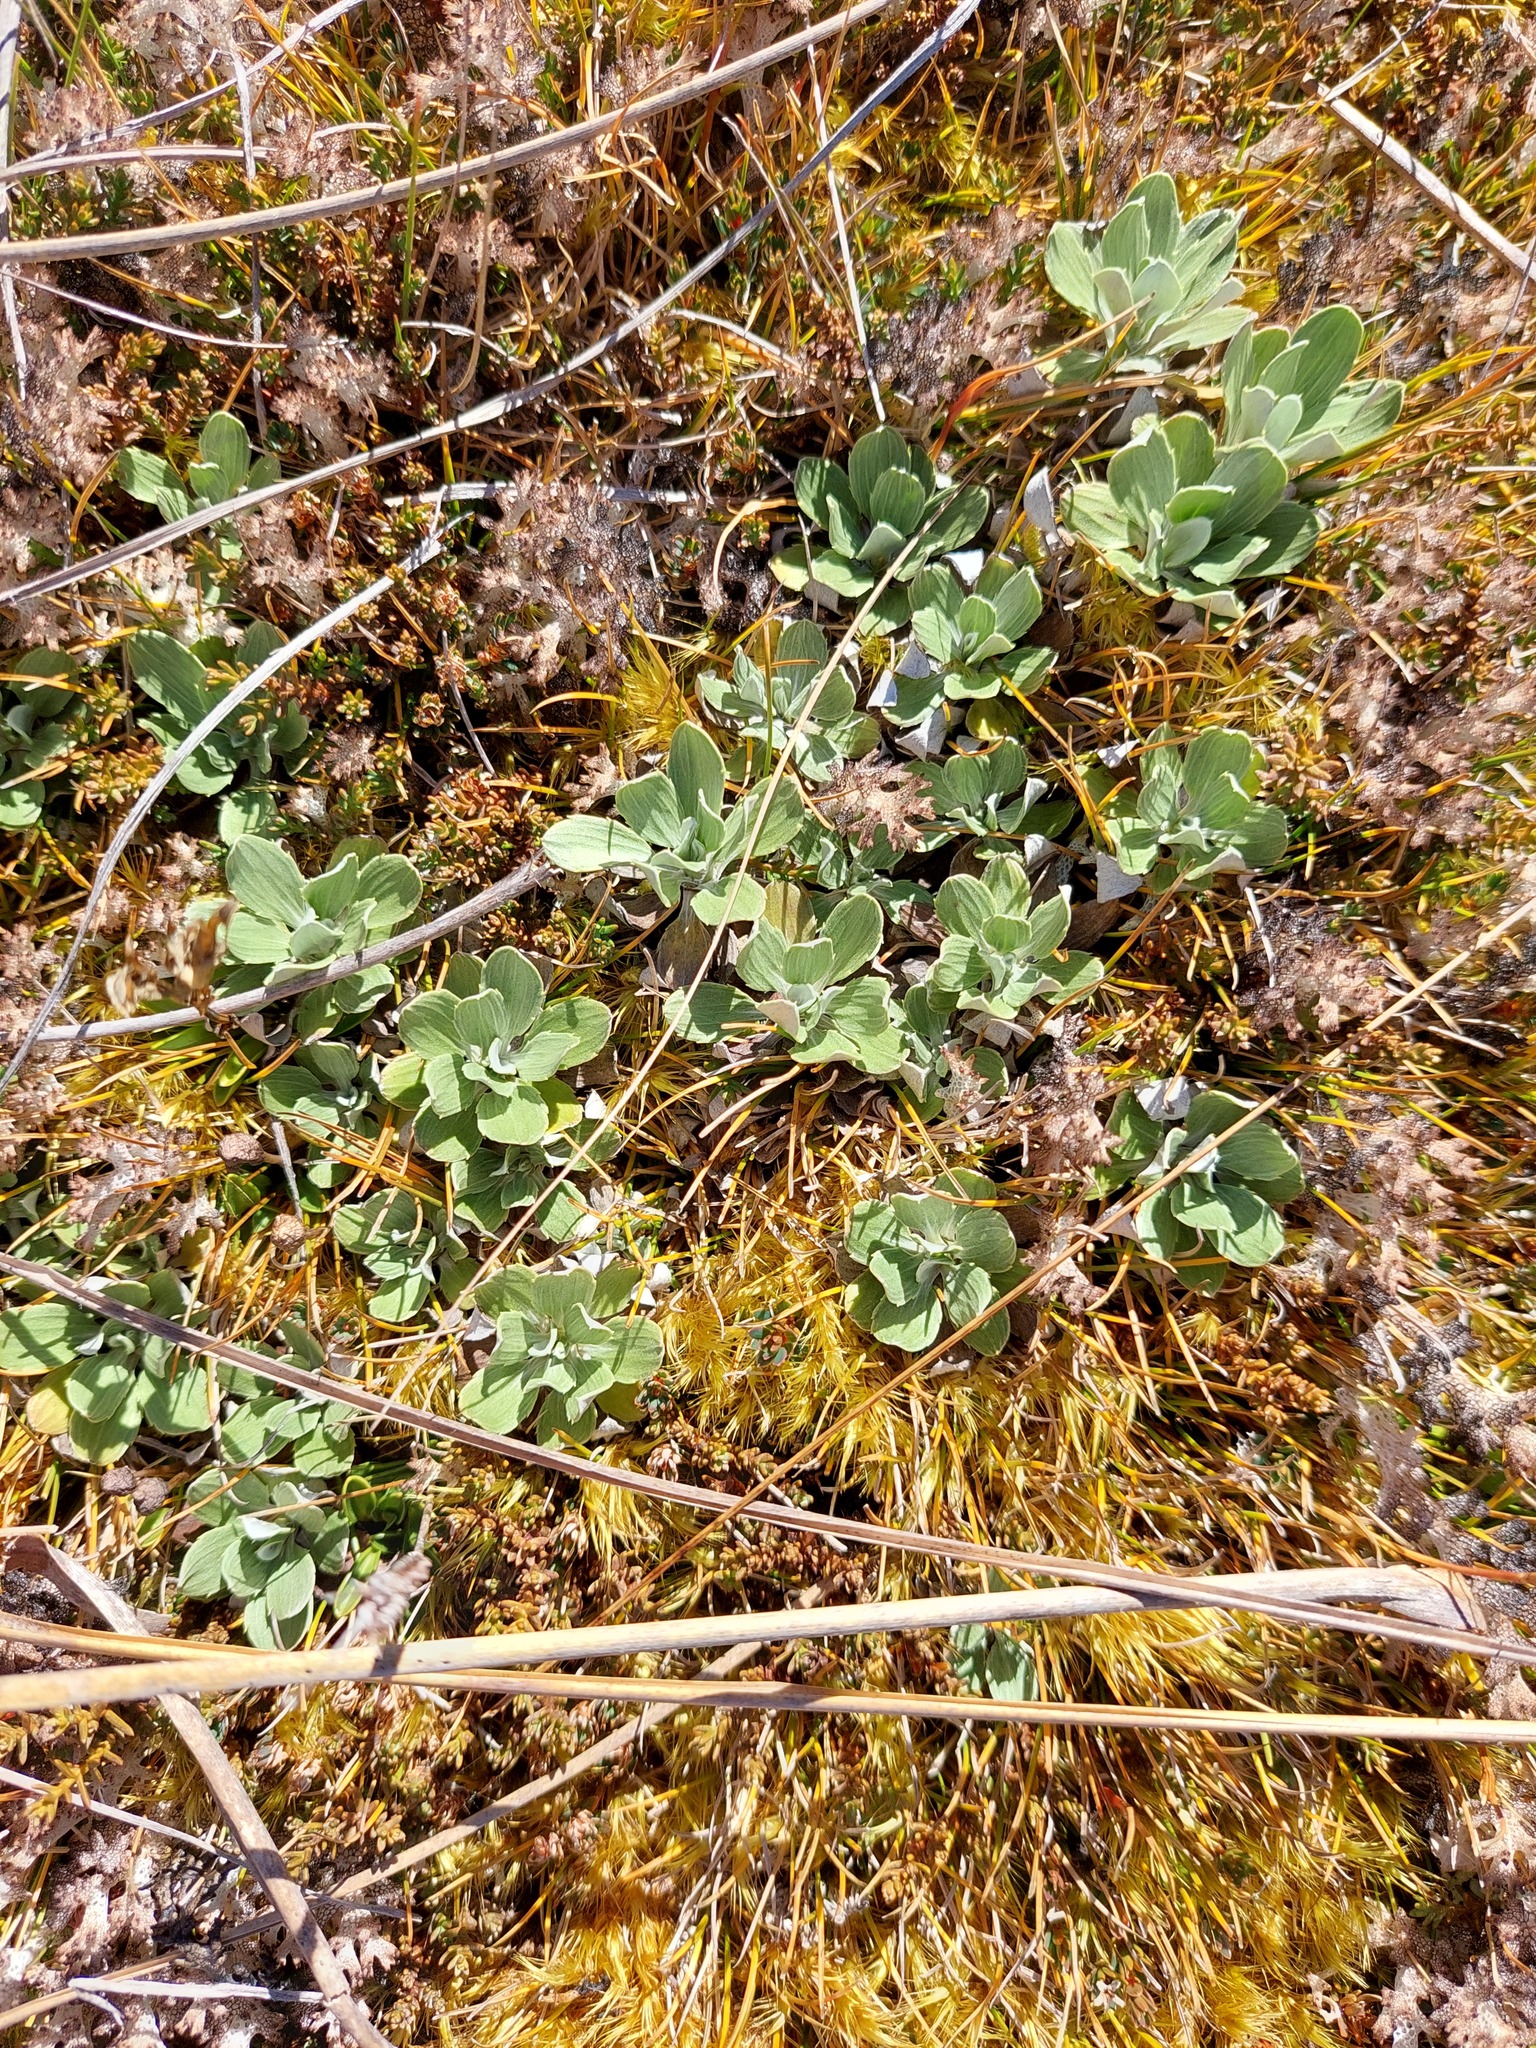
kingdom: Plantae
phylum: Tracheophyta
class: Magnoliopsida
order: Asterales
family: Asteraceae
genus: Celmisia
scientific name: Celmisia discolor
